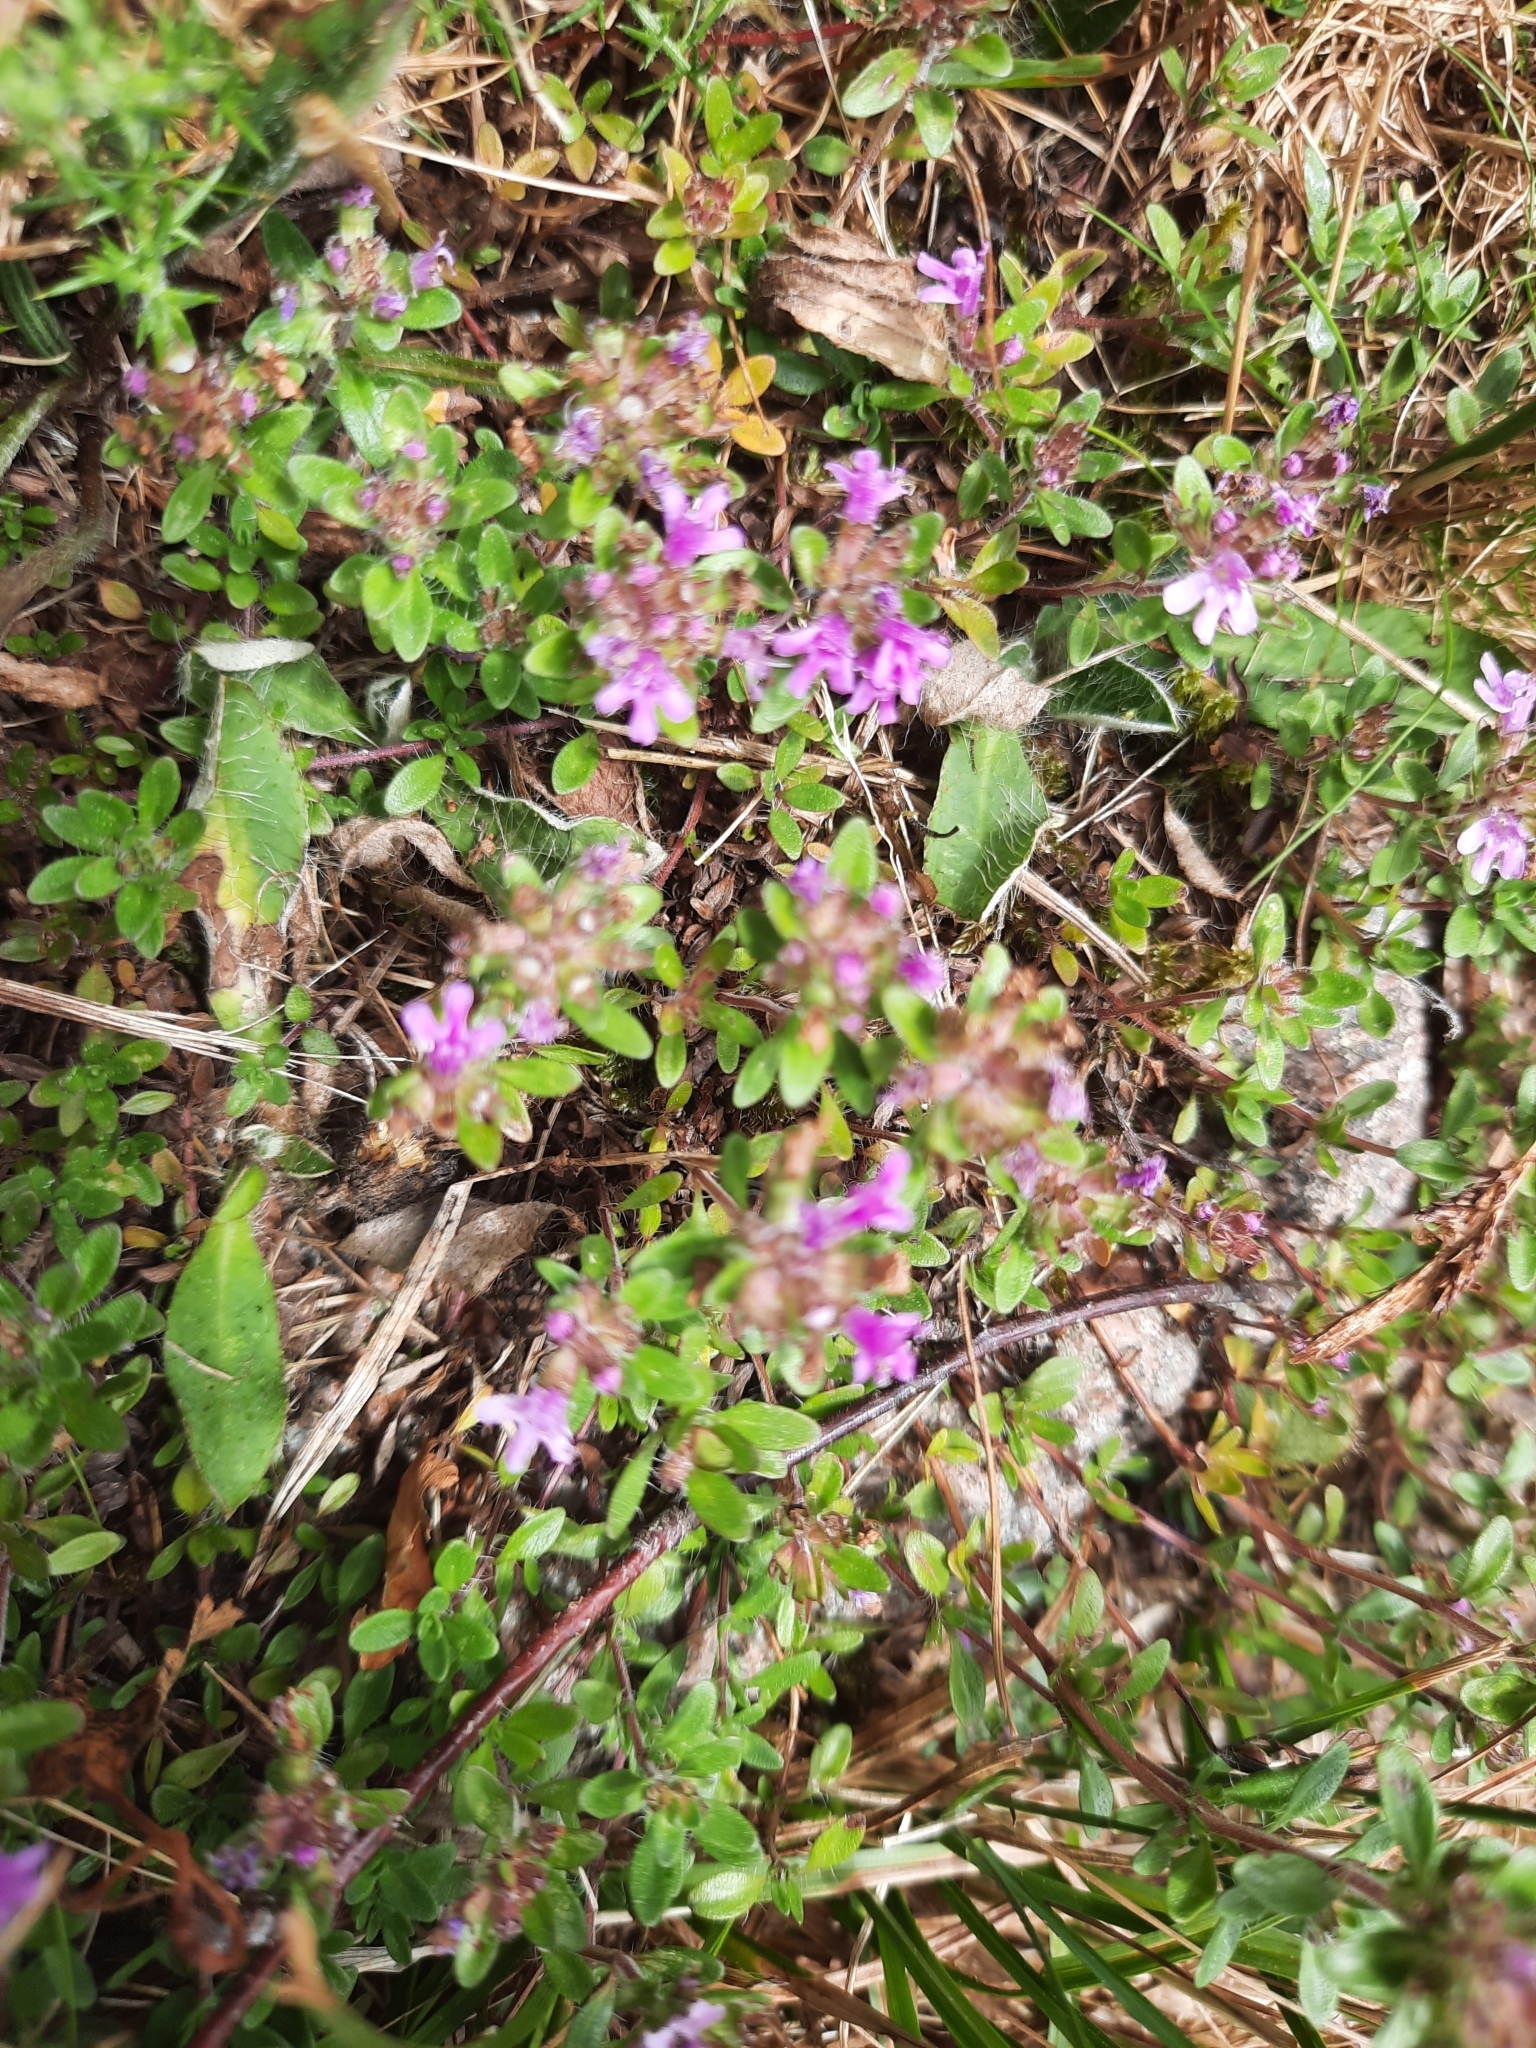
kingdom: Plantae
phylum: Tracheophyta
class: Magnoliopsida
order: Lamiales
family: Lamiaceae
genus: Thymus
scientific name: Thymus praecox
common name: Wild thyme
